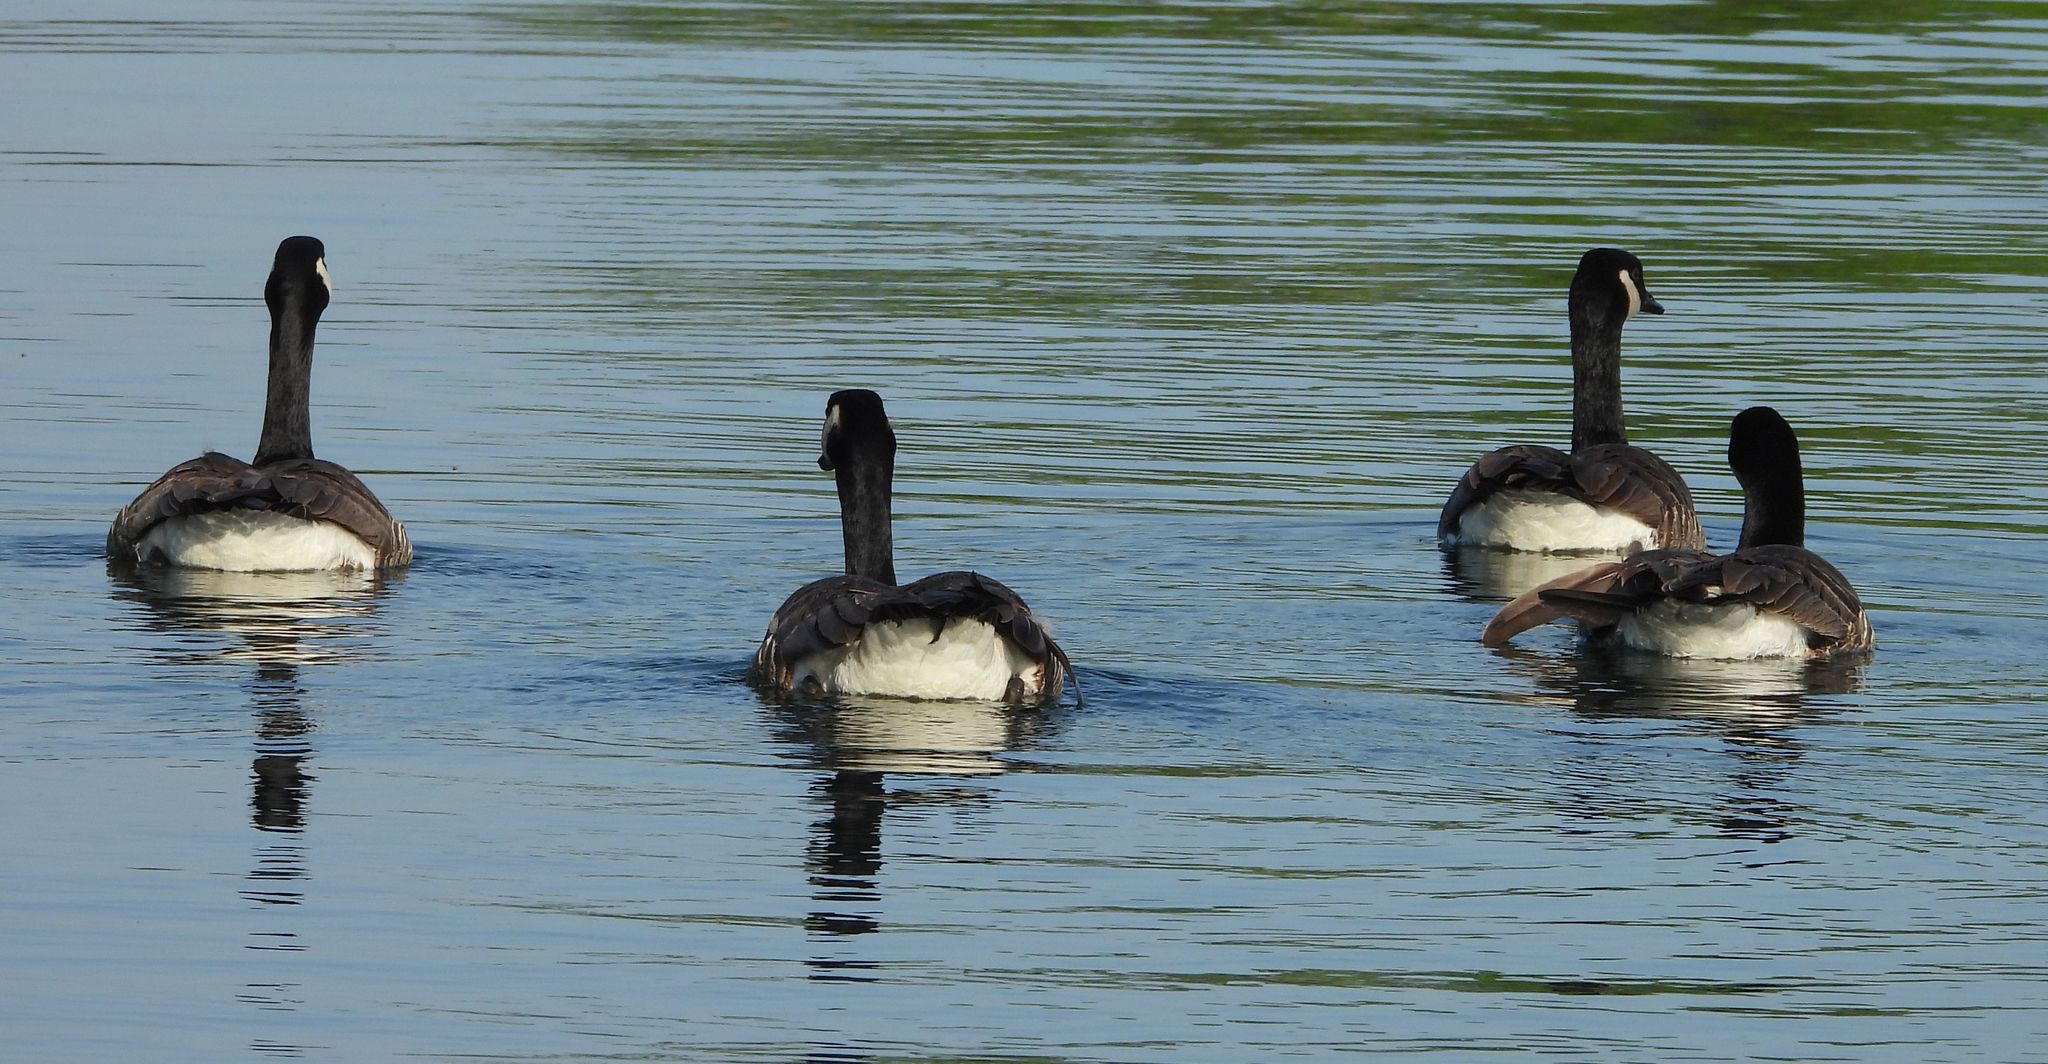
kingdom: Animalia
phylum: Chordata
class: Aves
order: Anseriformes
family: Anatidae
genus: Branta
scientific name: Branta canadensis
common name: Canada goose
